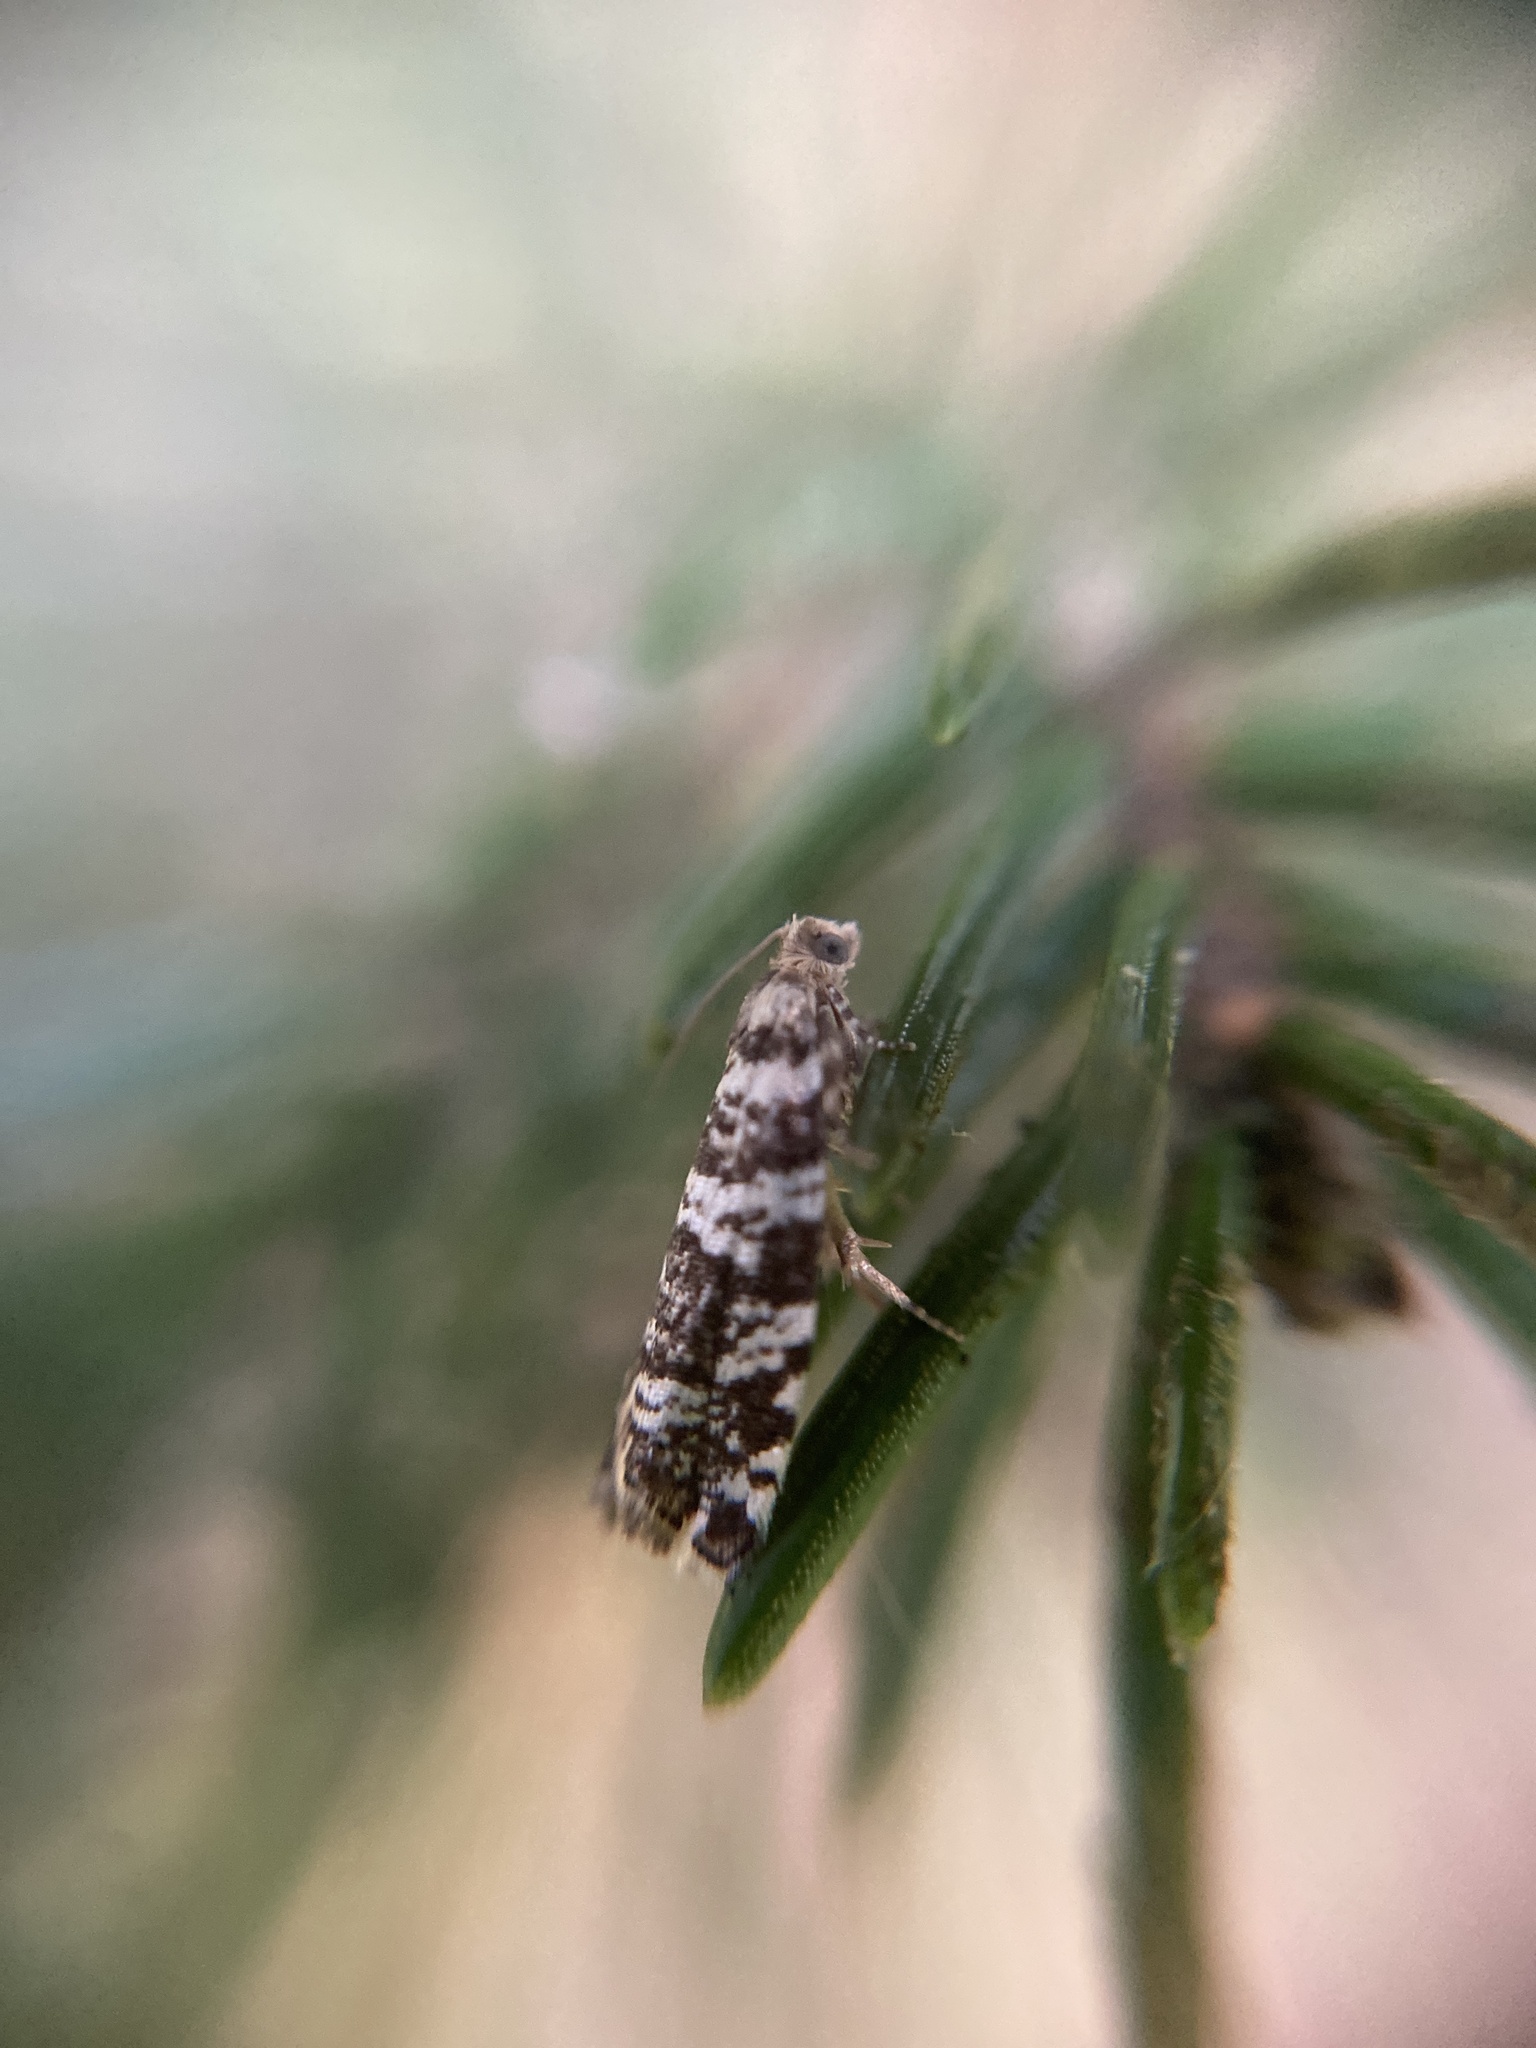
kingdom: Animalia
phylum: Arthropoda
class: Insecta
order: Lepidoptera
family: Tortricidae
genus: Epinotia
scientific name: Epinotia tedella
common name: Common spruce bell
